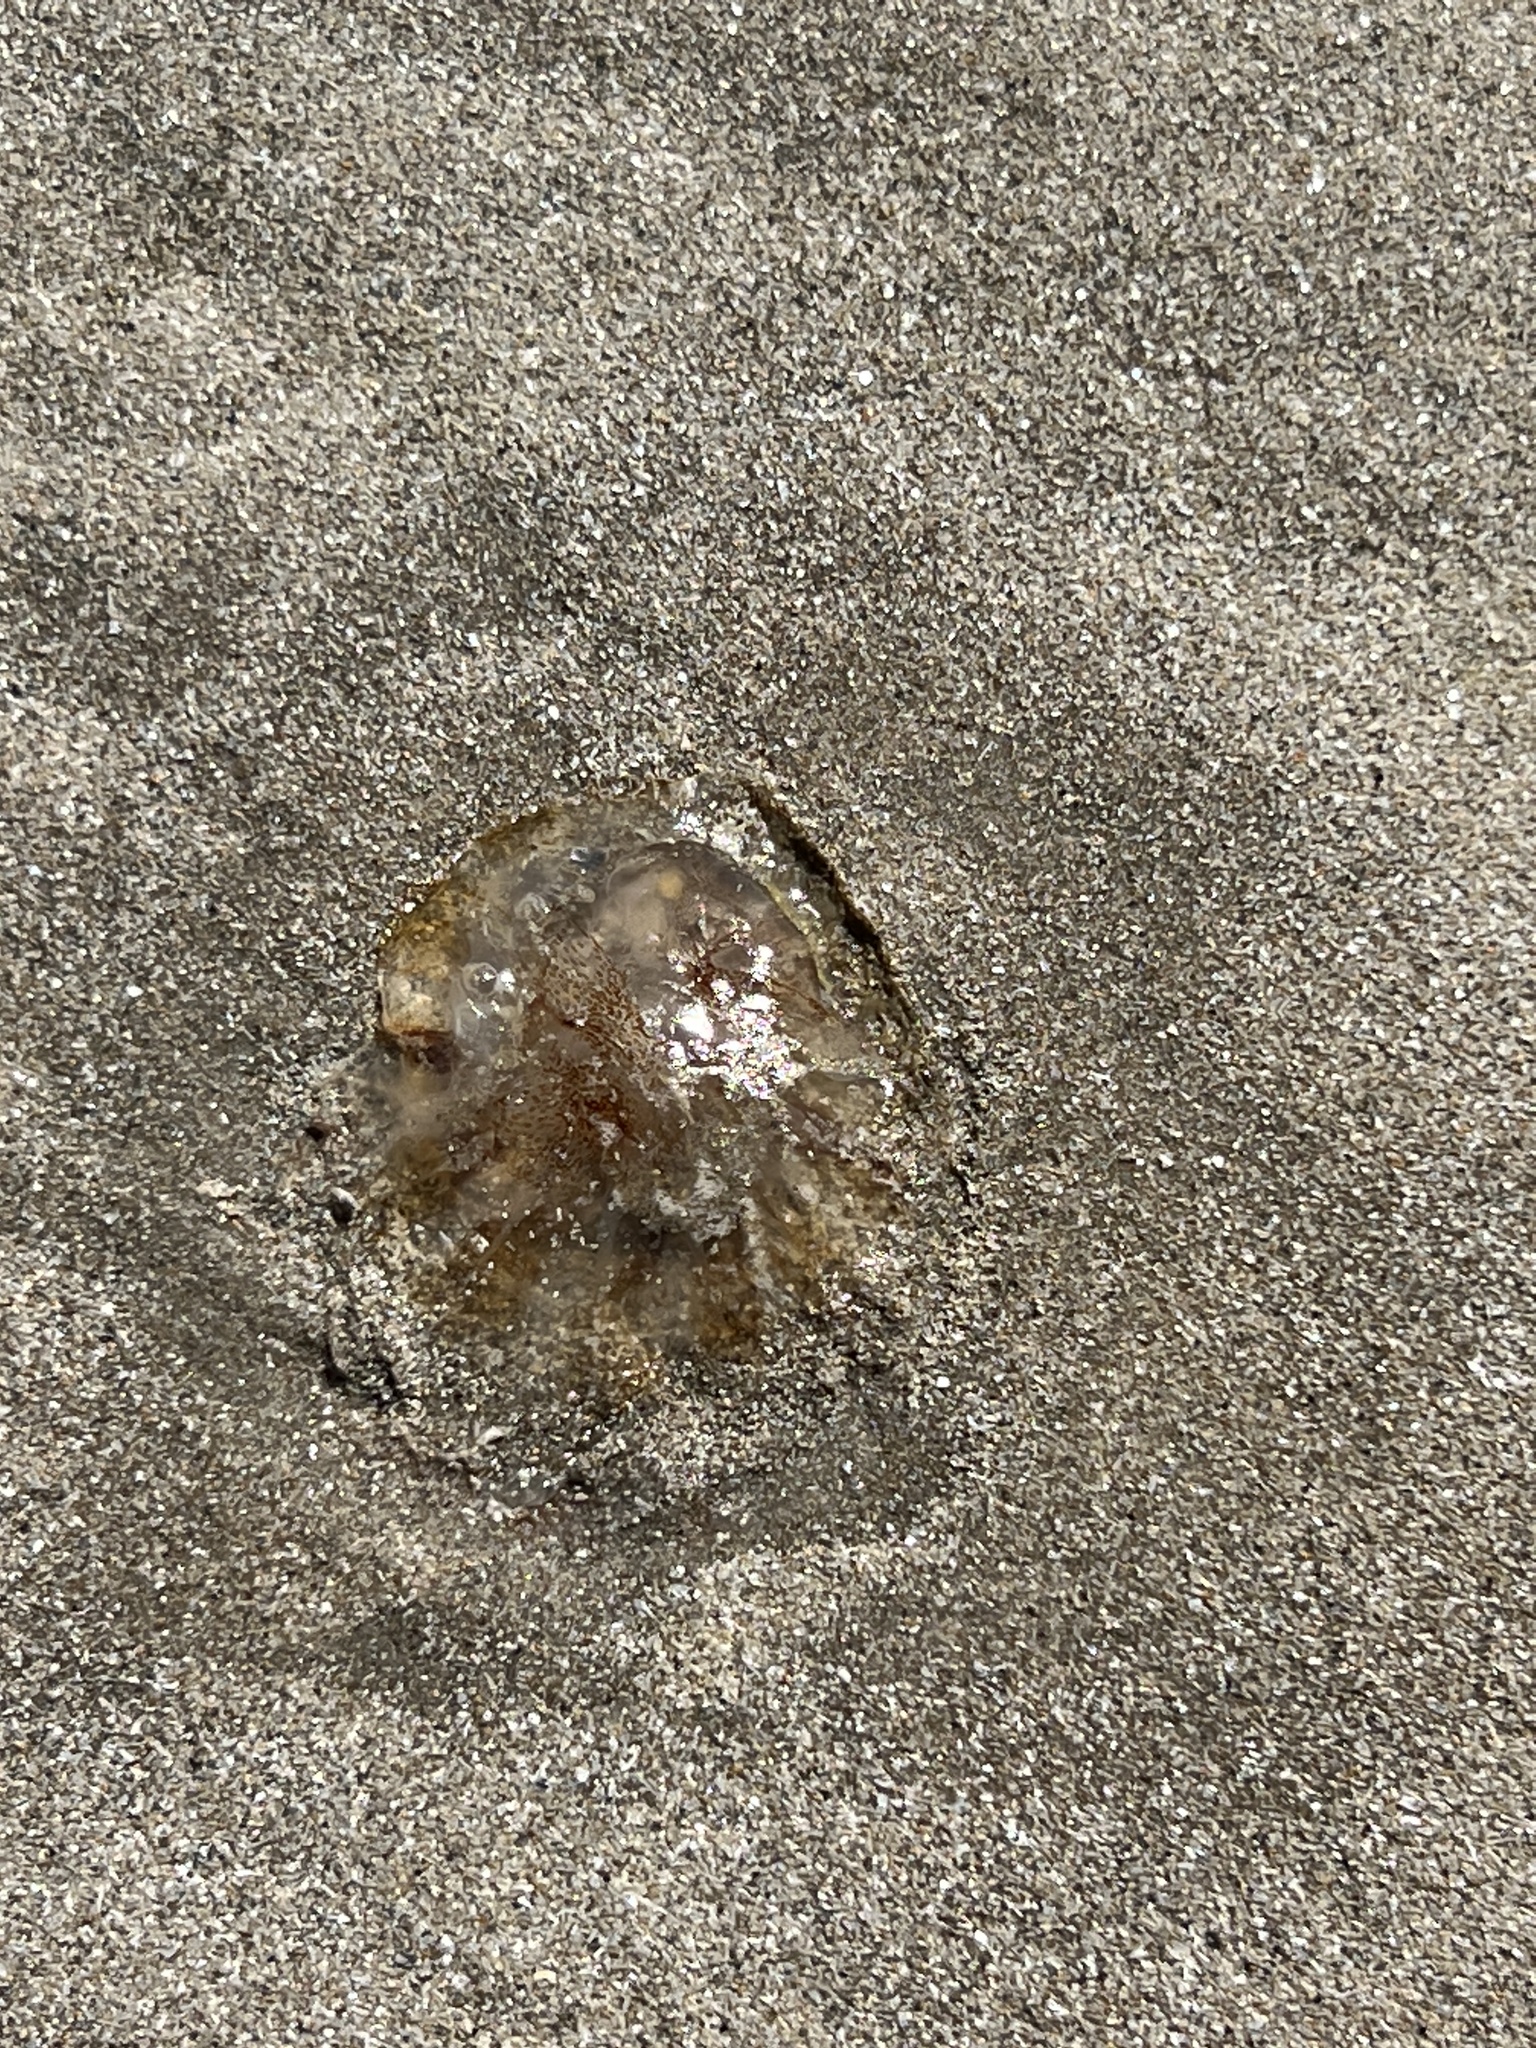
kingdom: Animalia
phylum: Cnidaria
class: Scyphozoa
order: Semaeostomeae
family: Pelagiidae
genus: Chrysaora
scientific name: Chrysaora chesapeakei
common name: Bay nettle
